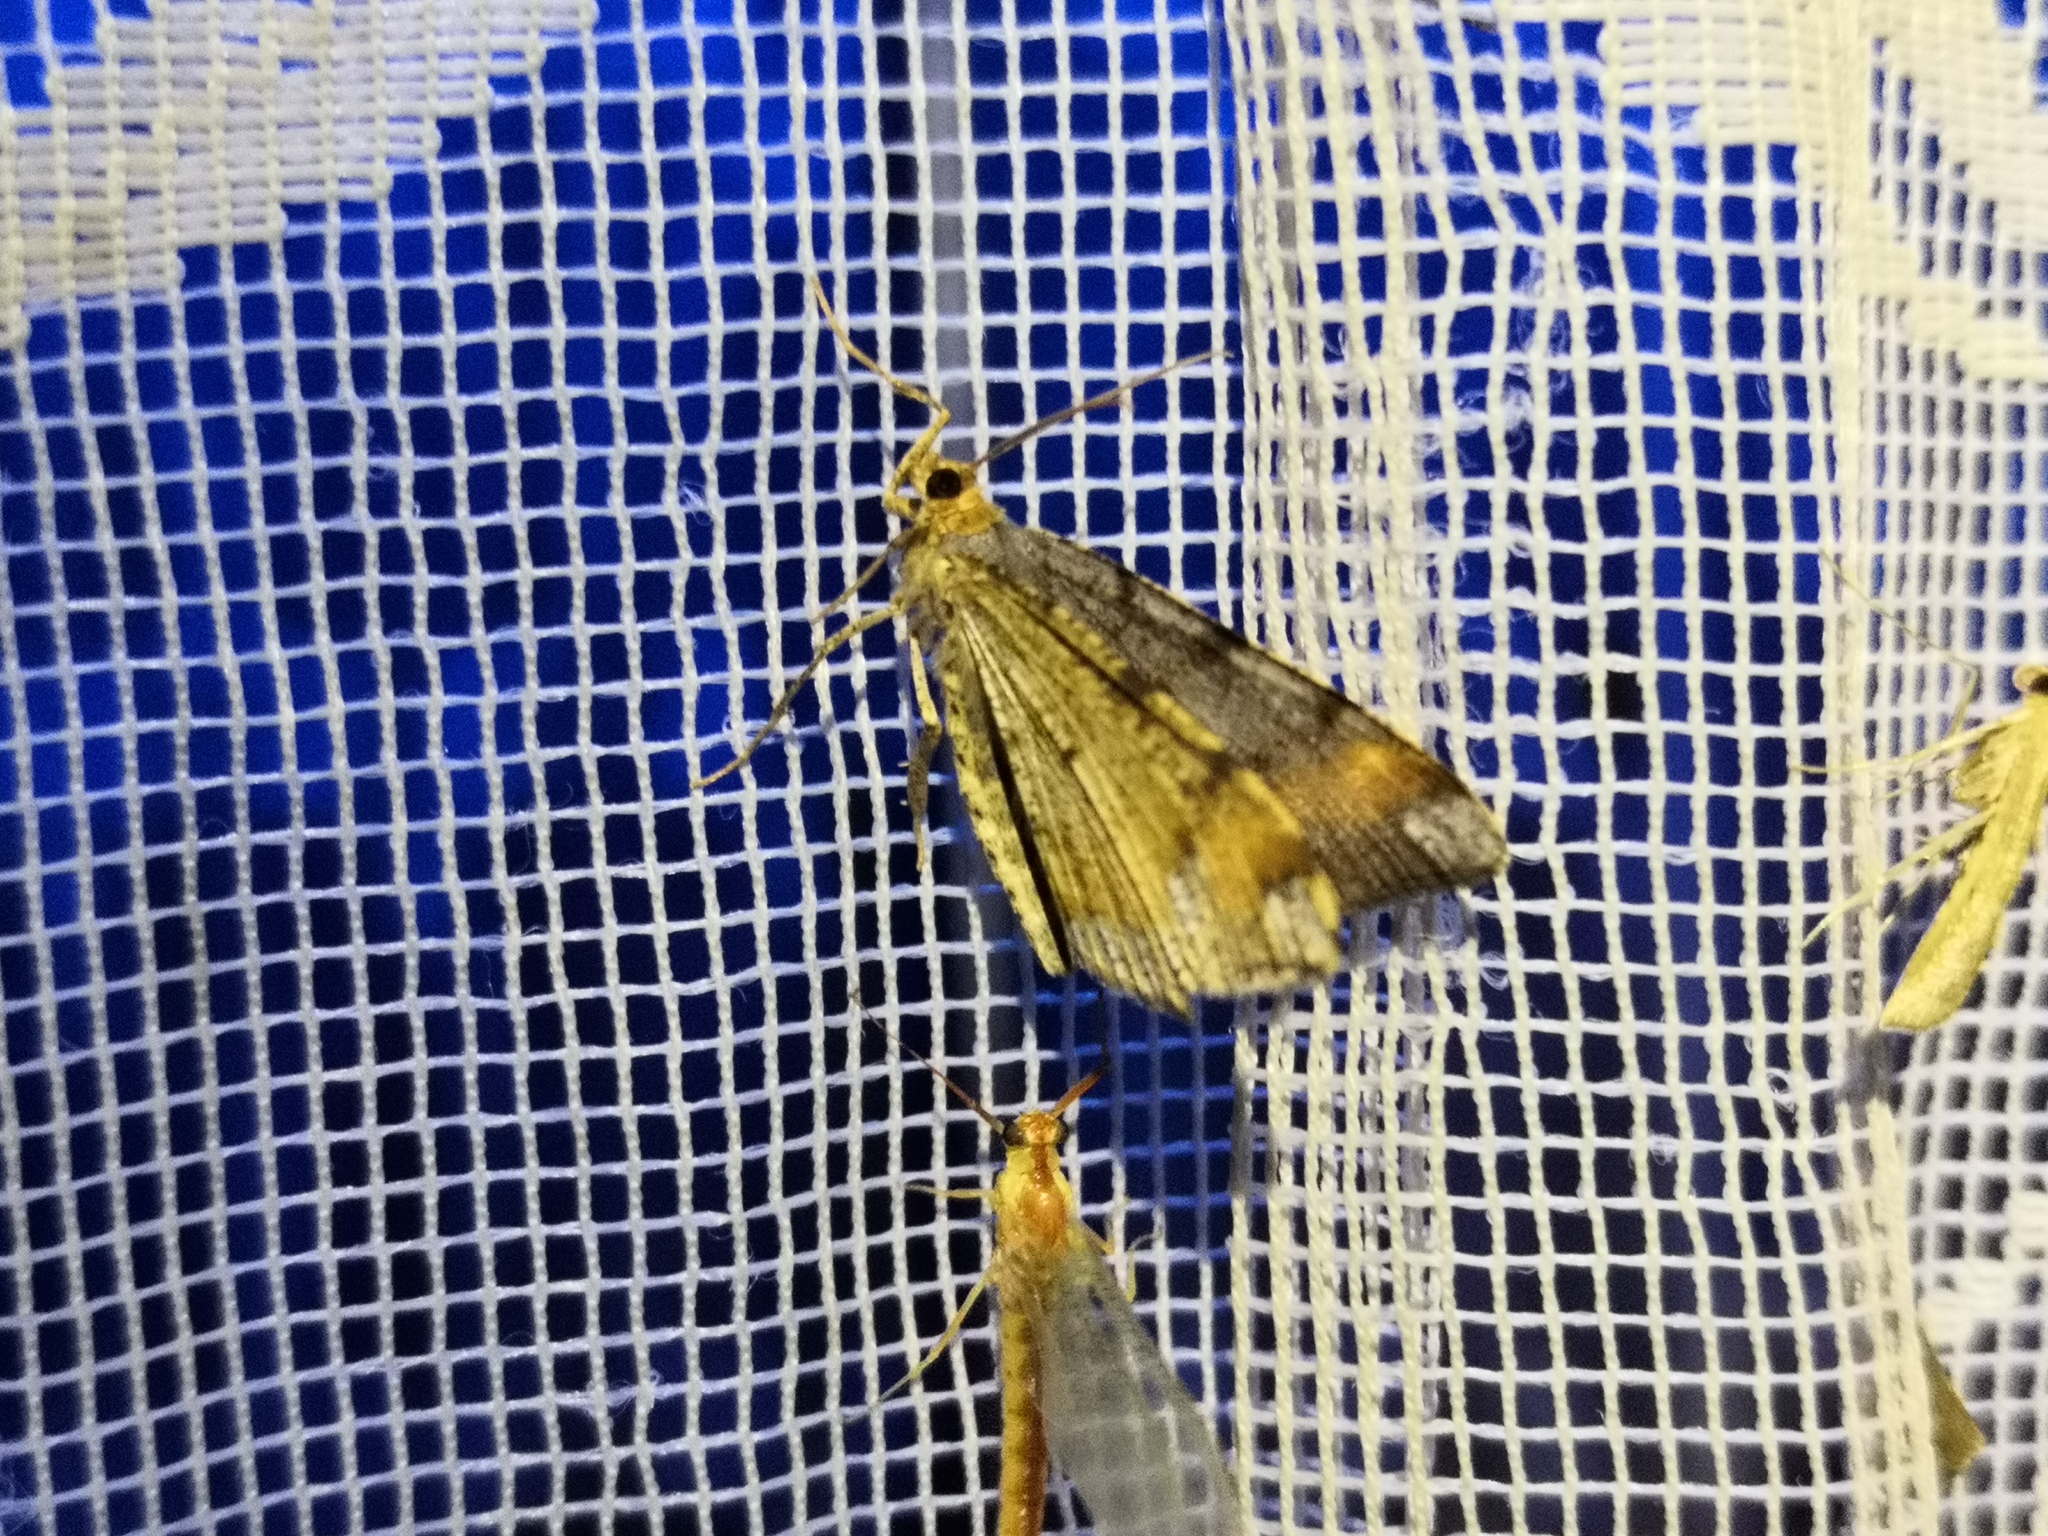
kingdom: Animalia
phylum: Arthropoda
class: Insecta
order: Lepidoptera
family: Geometridae
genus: Macaria
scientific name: Macaria liturata
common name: Tawny-barred angle
